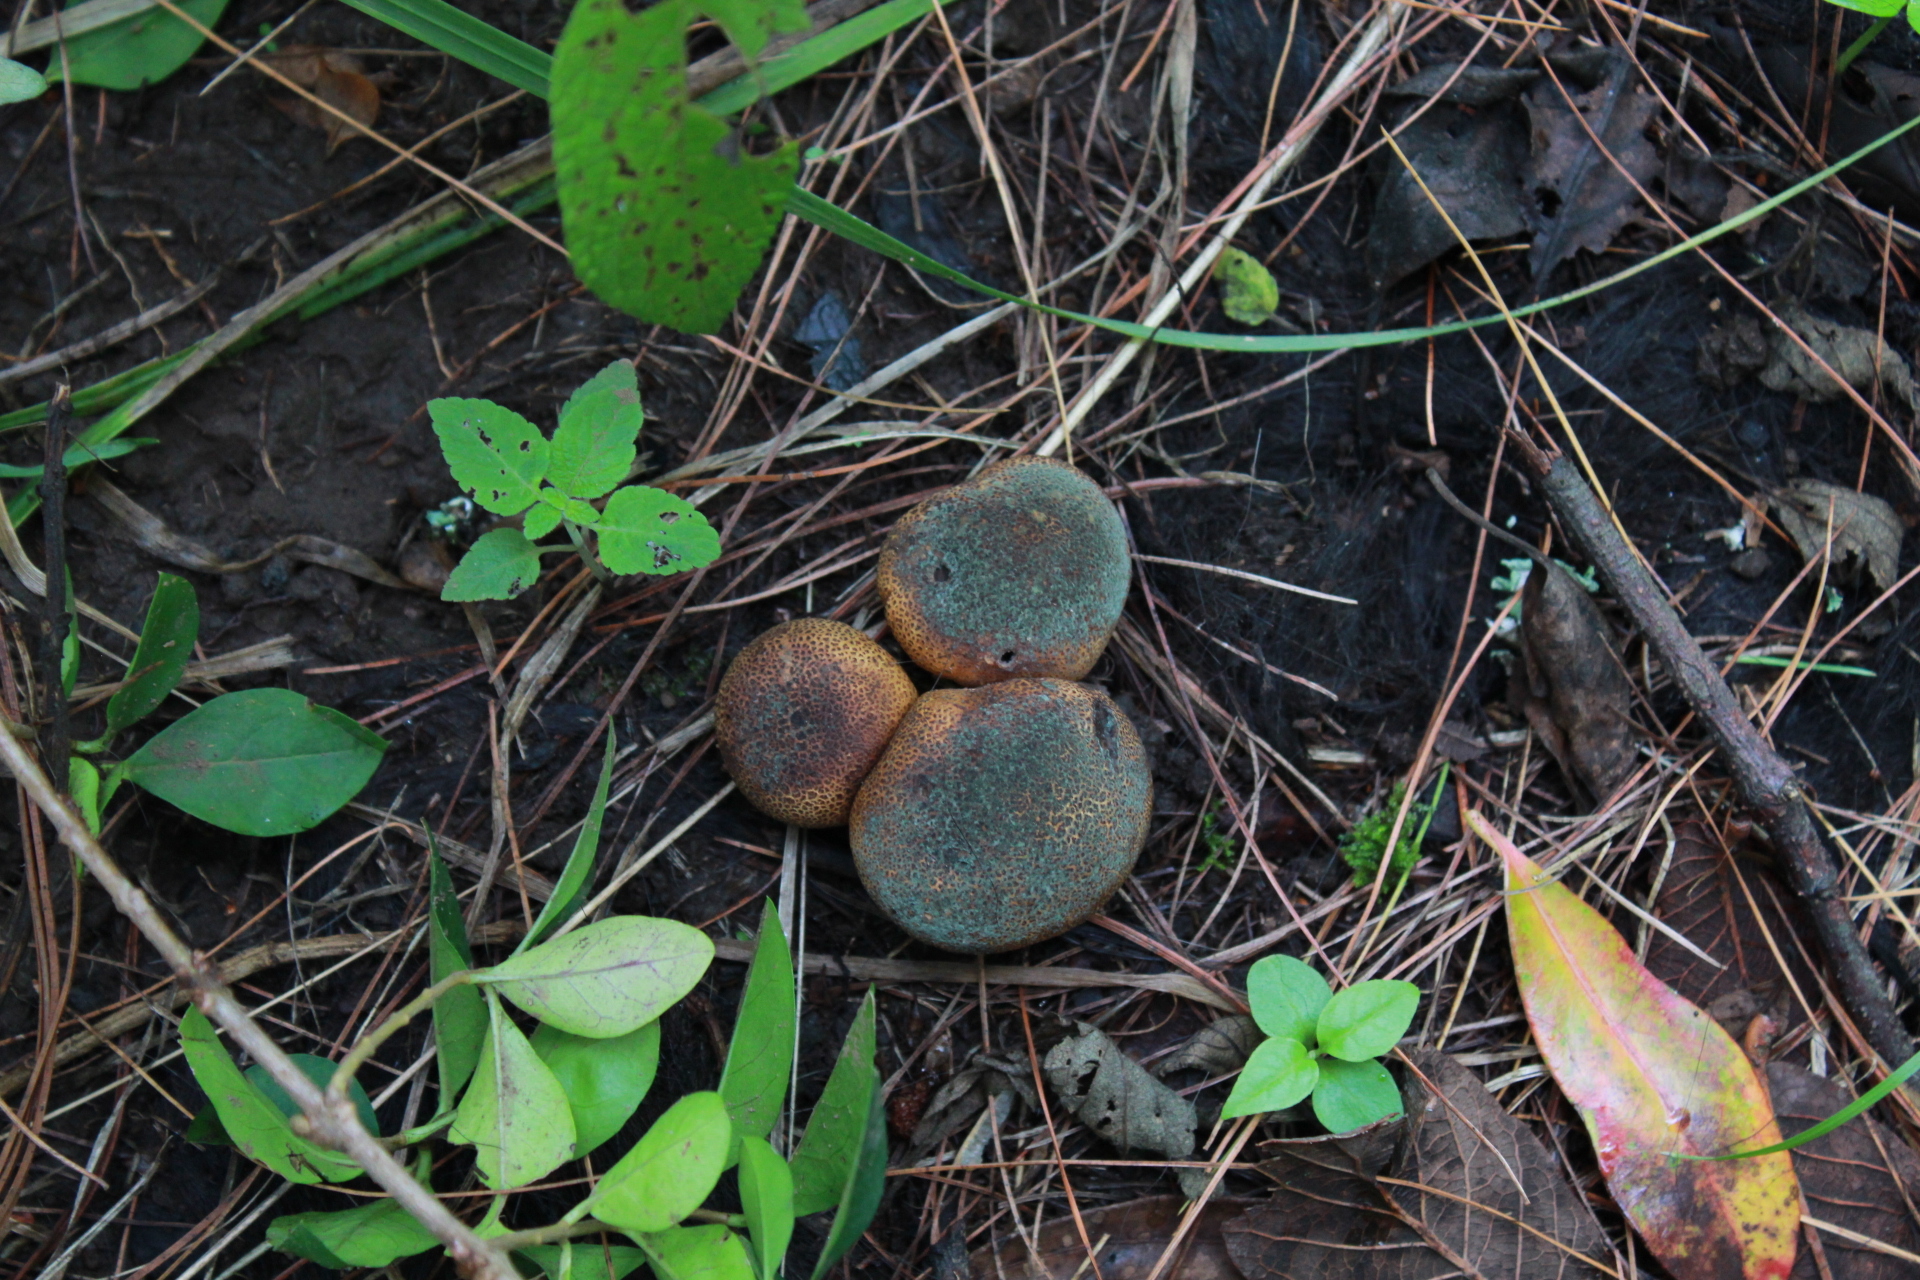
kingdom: Fungi
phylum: Basidiomycota
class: Agaricomycetes
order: Boletales
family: Sclerodermataceae
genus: Scleroderma
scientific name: Scleroderma citrinum
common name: Common earthball
